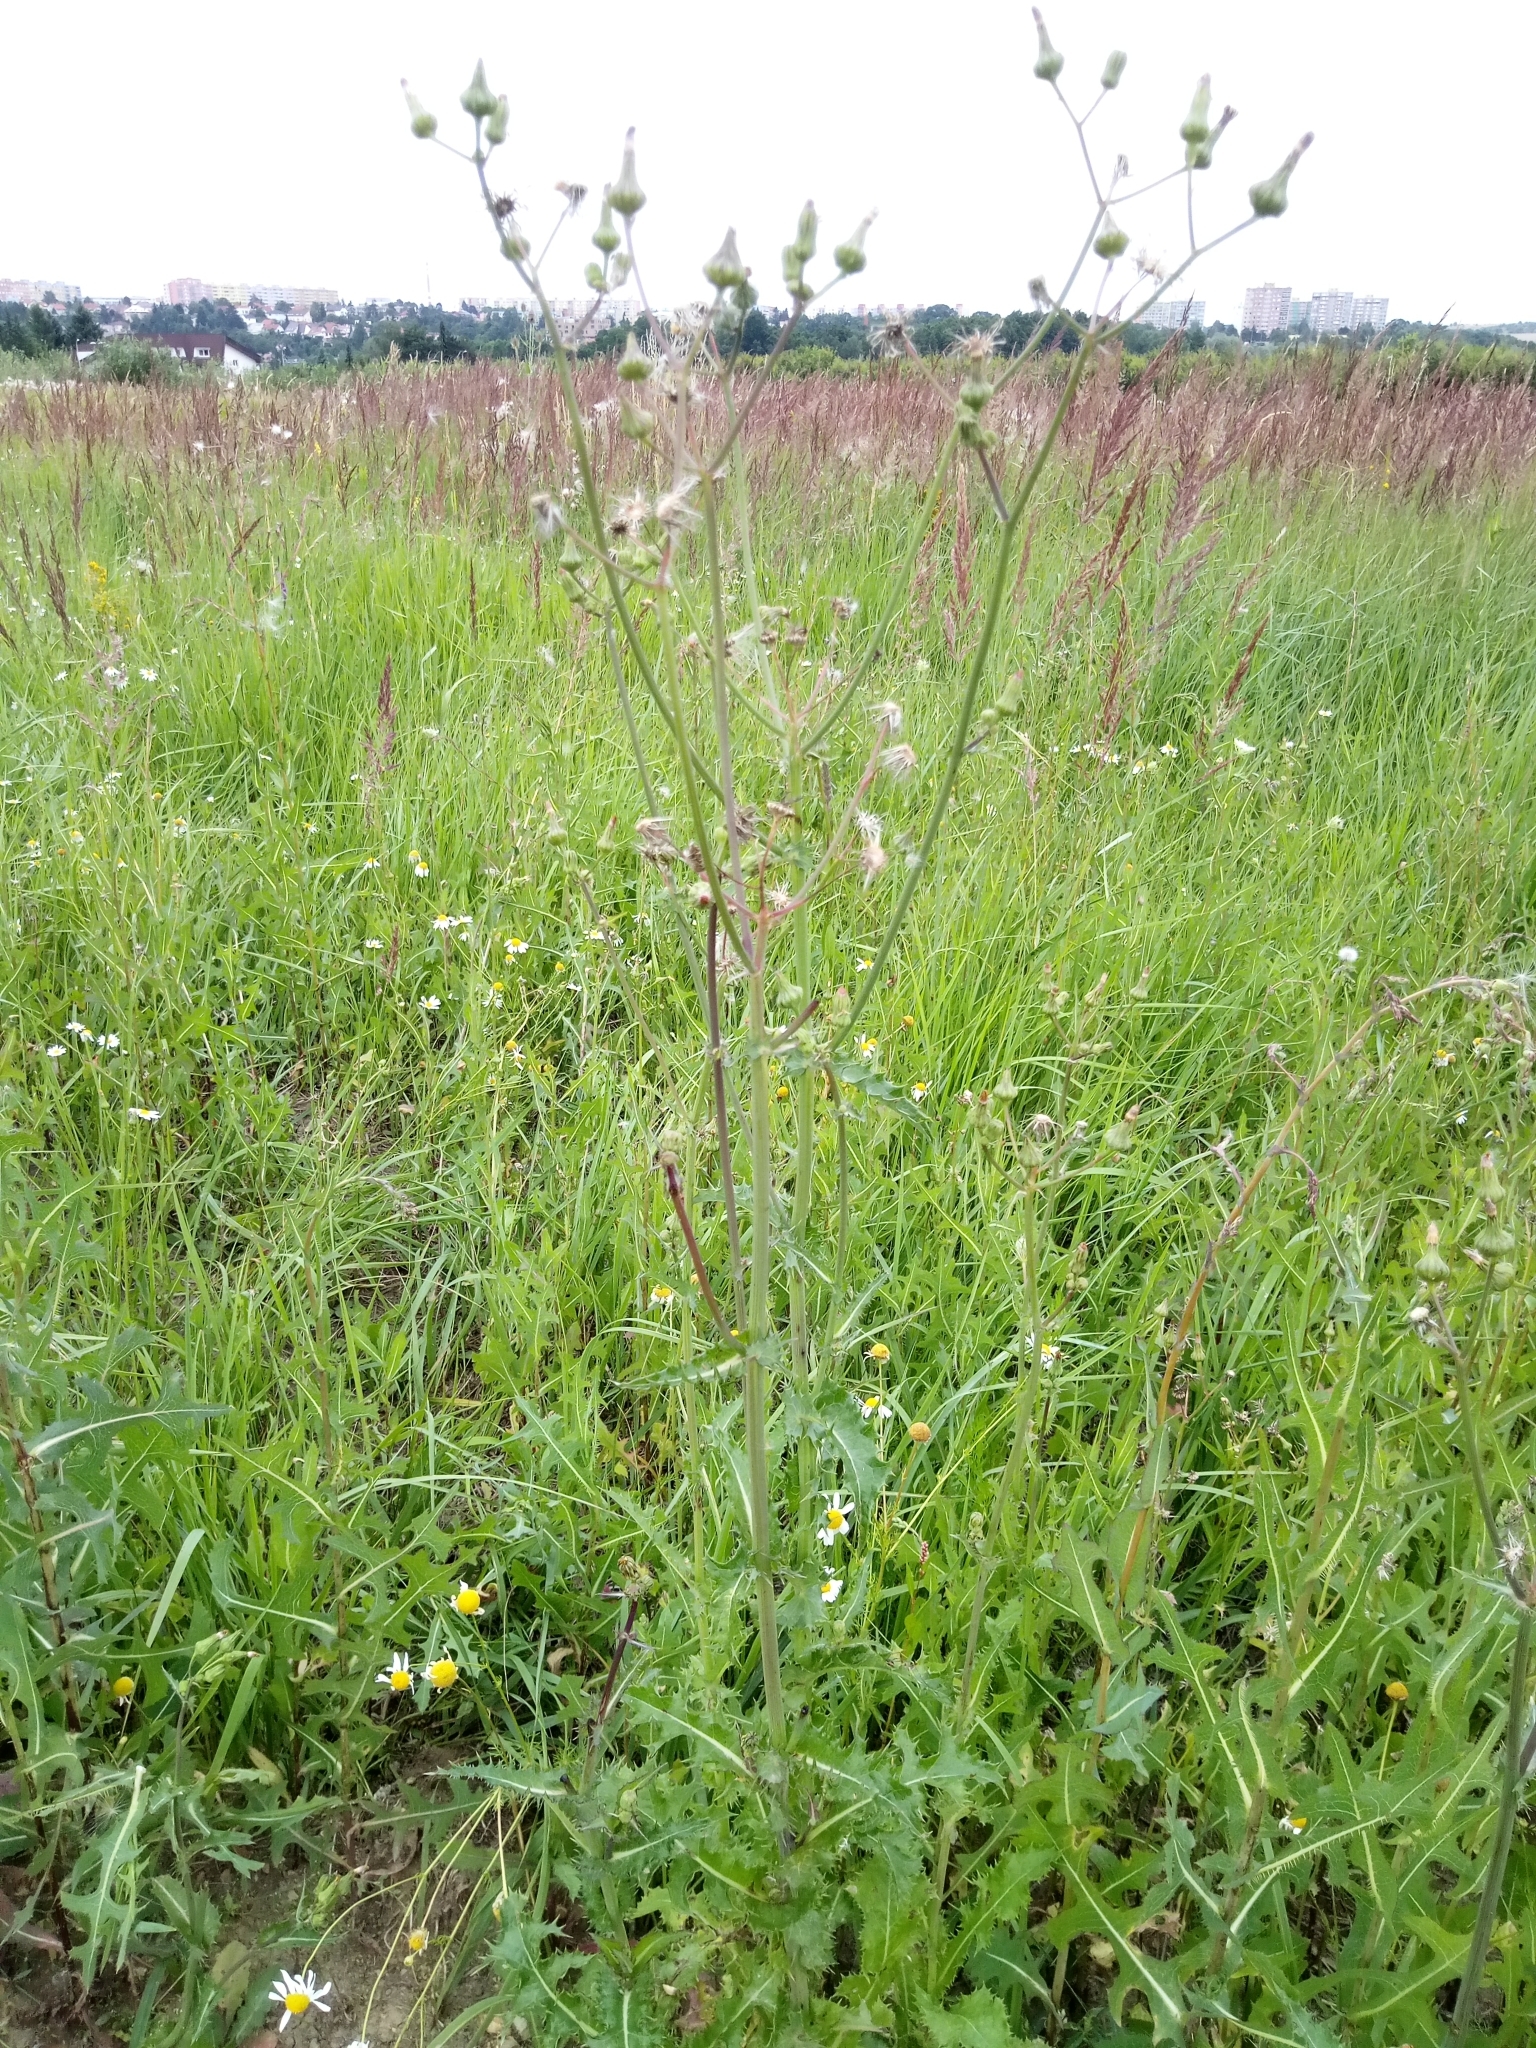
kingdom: Plantae
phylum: Tracheophyta
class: Magnoliopsida
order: Asterales
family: Asteraceae
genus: Sonchus
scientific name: Sonchus asper
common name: Prickly sow-thistle
